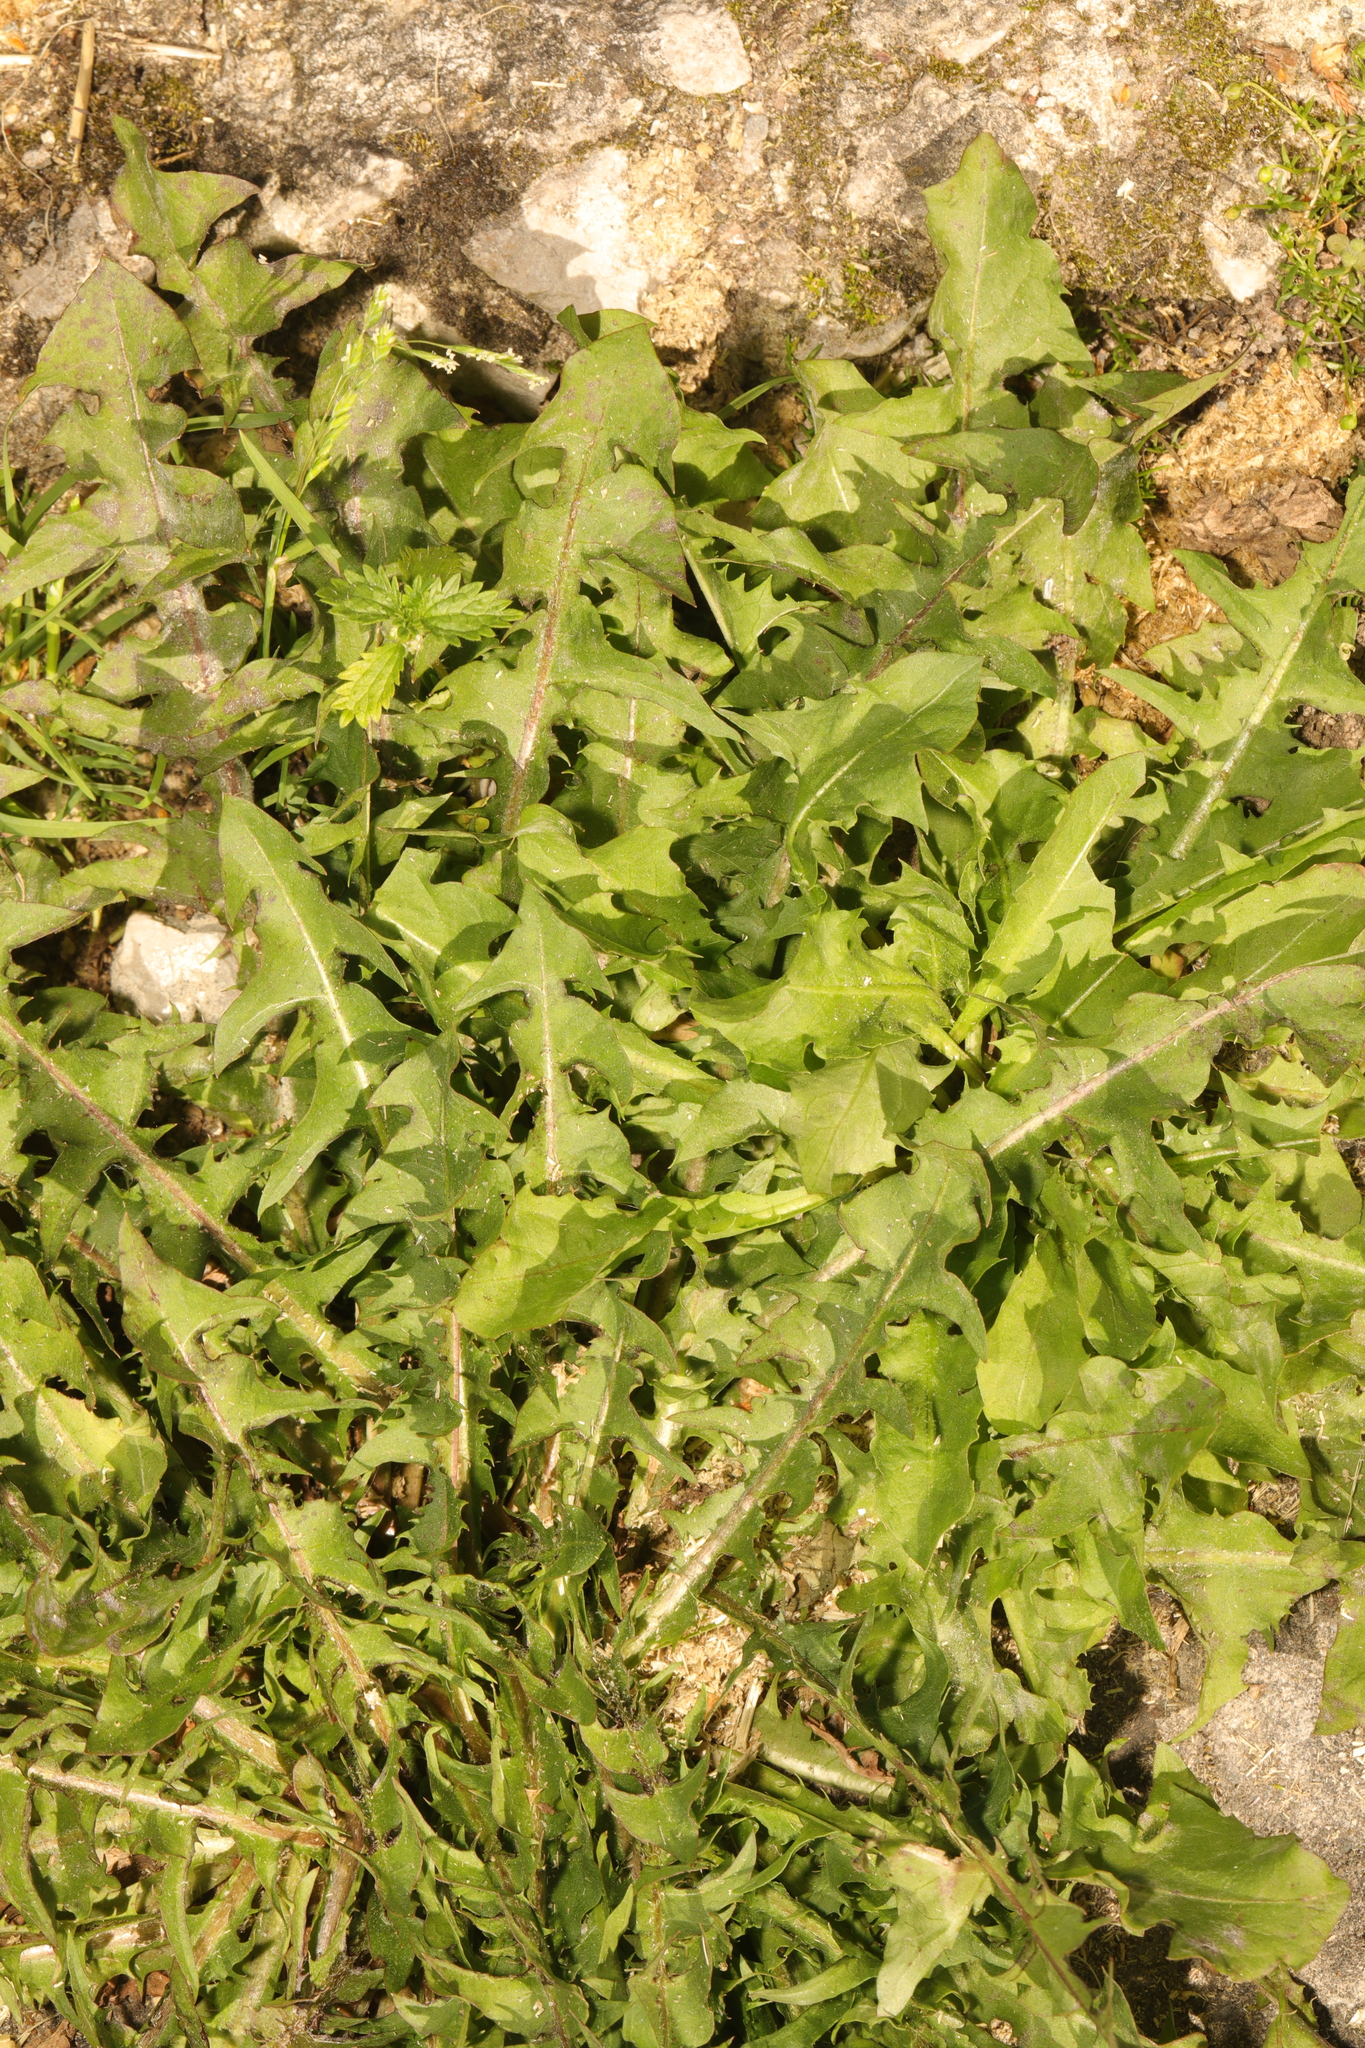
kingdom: Plantae
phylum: Tracheophyta
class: Magnoliopsida
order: Asterales
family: Asteraceae
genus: Taraxacum
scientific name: Taraxacum officinale
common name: Common dandelion
